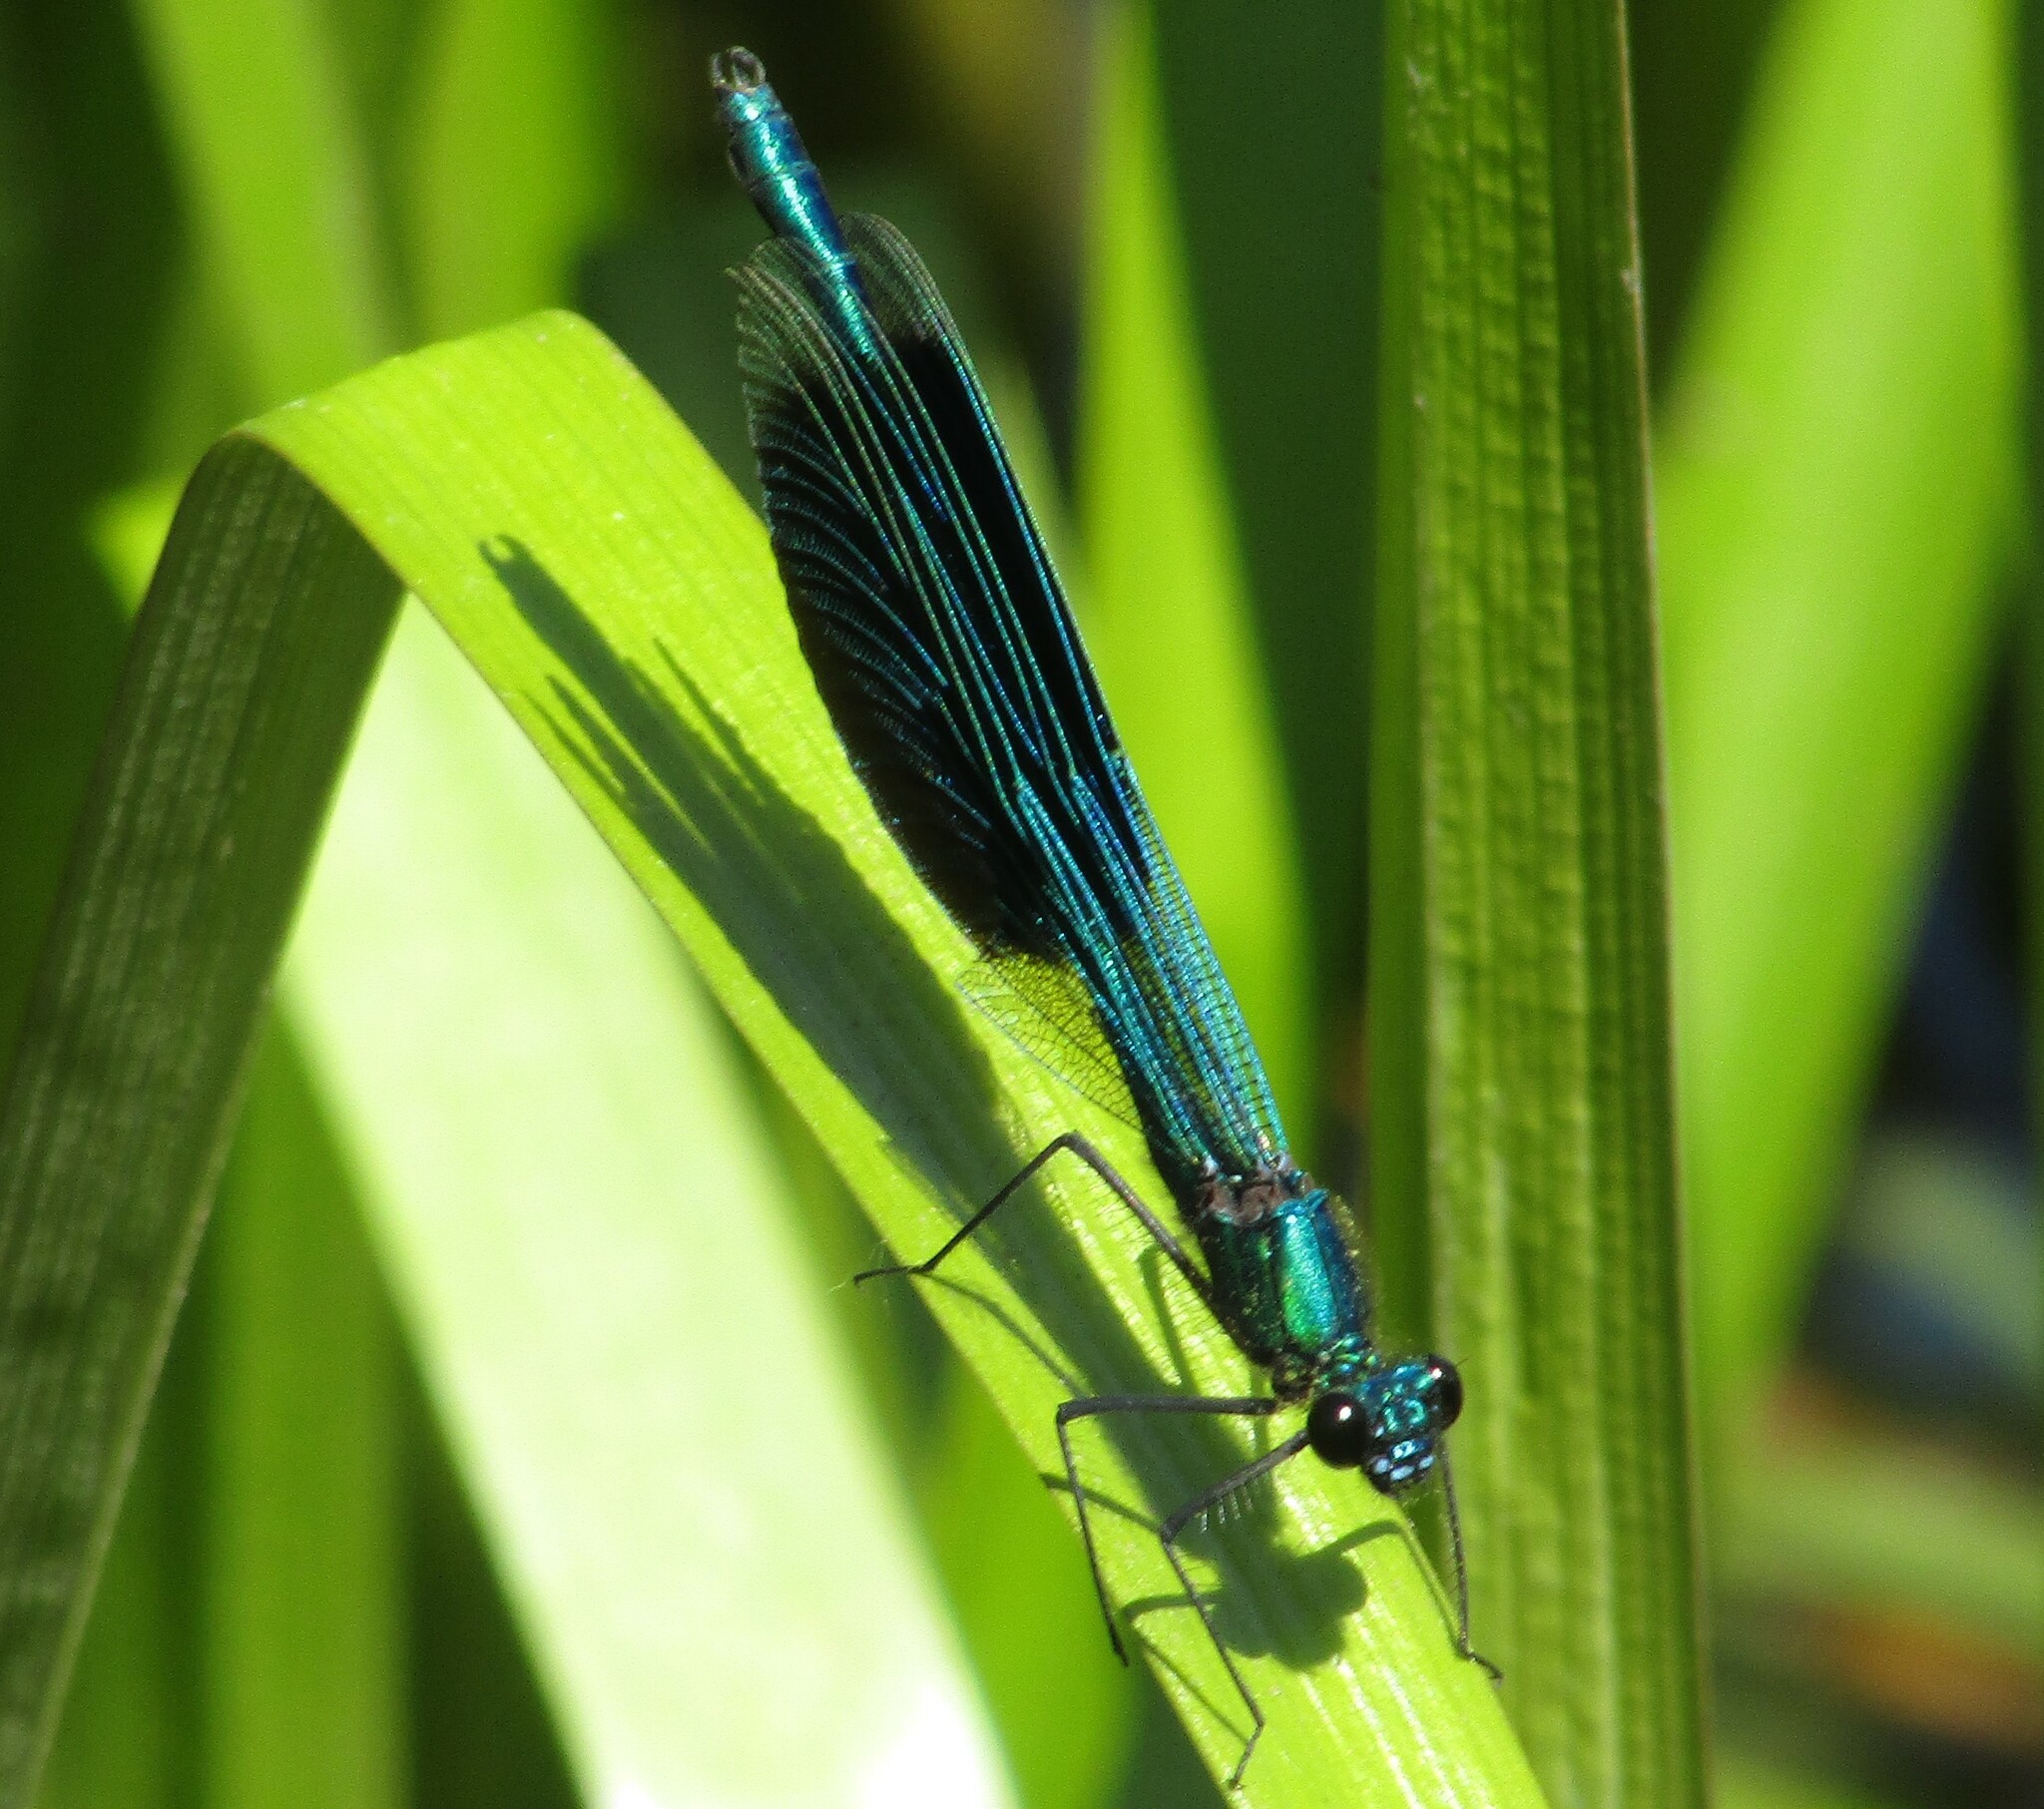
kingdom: Animalia
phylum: Arthropoda
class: Insecta
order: Odonata
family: Calopterygidae
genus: Calopteryx
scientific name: Calopteryx splendens
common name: Banded demoiselle
